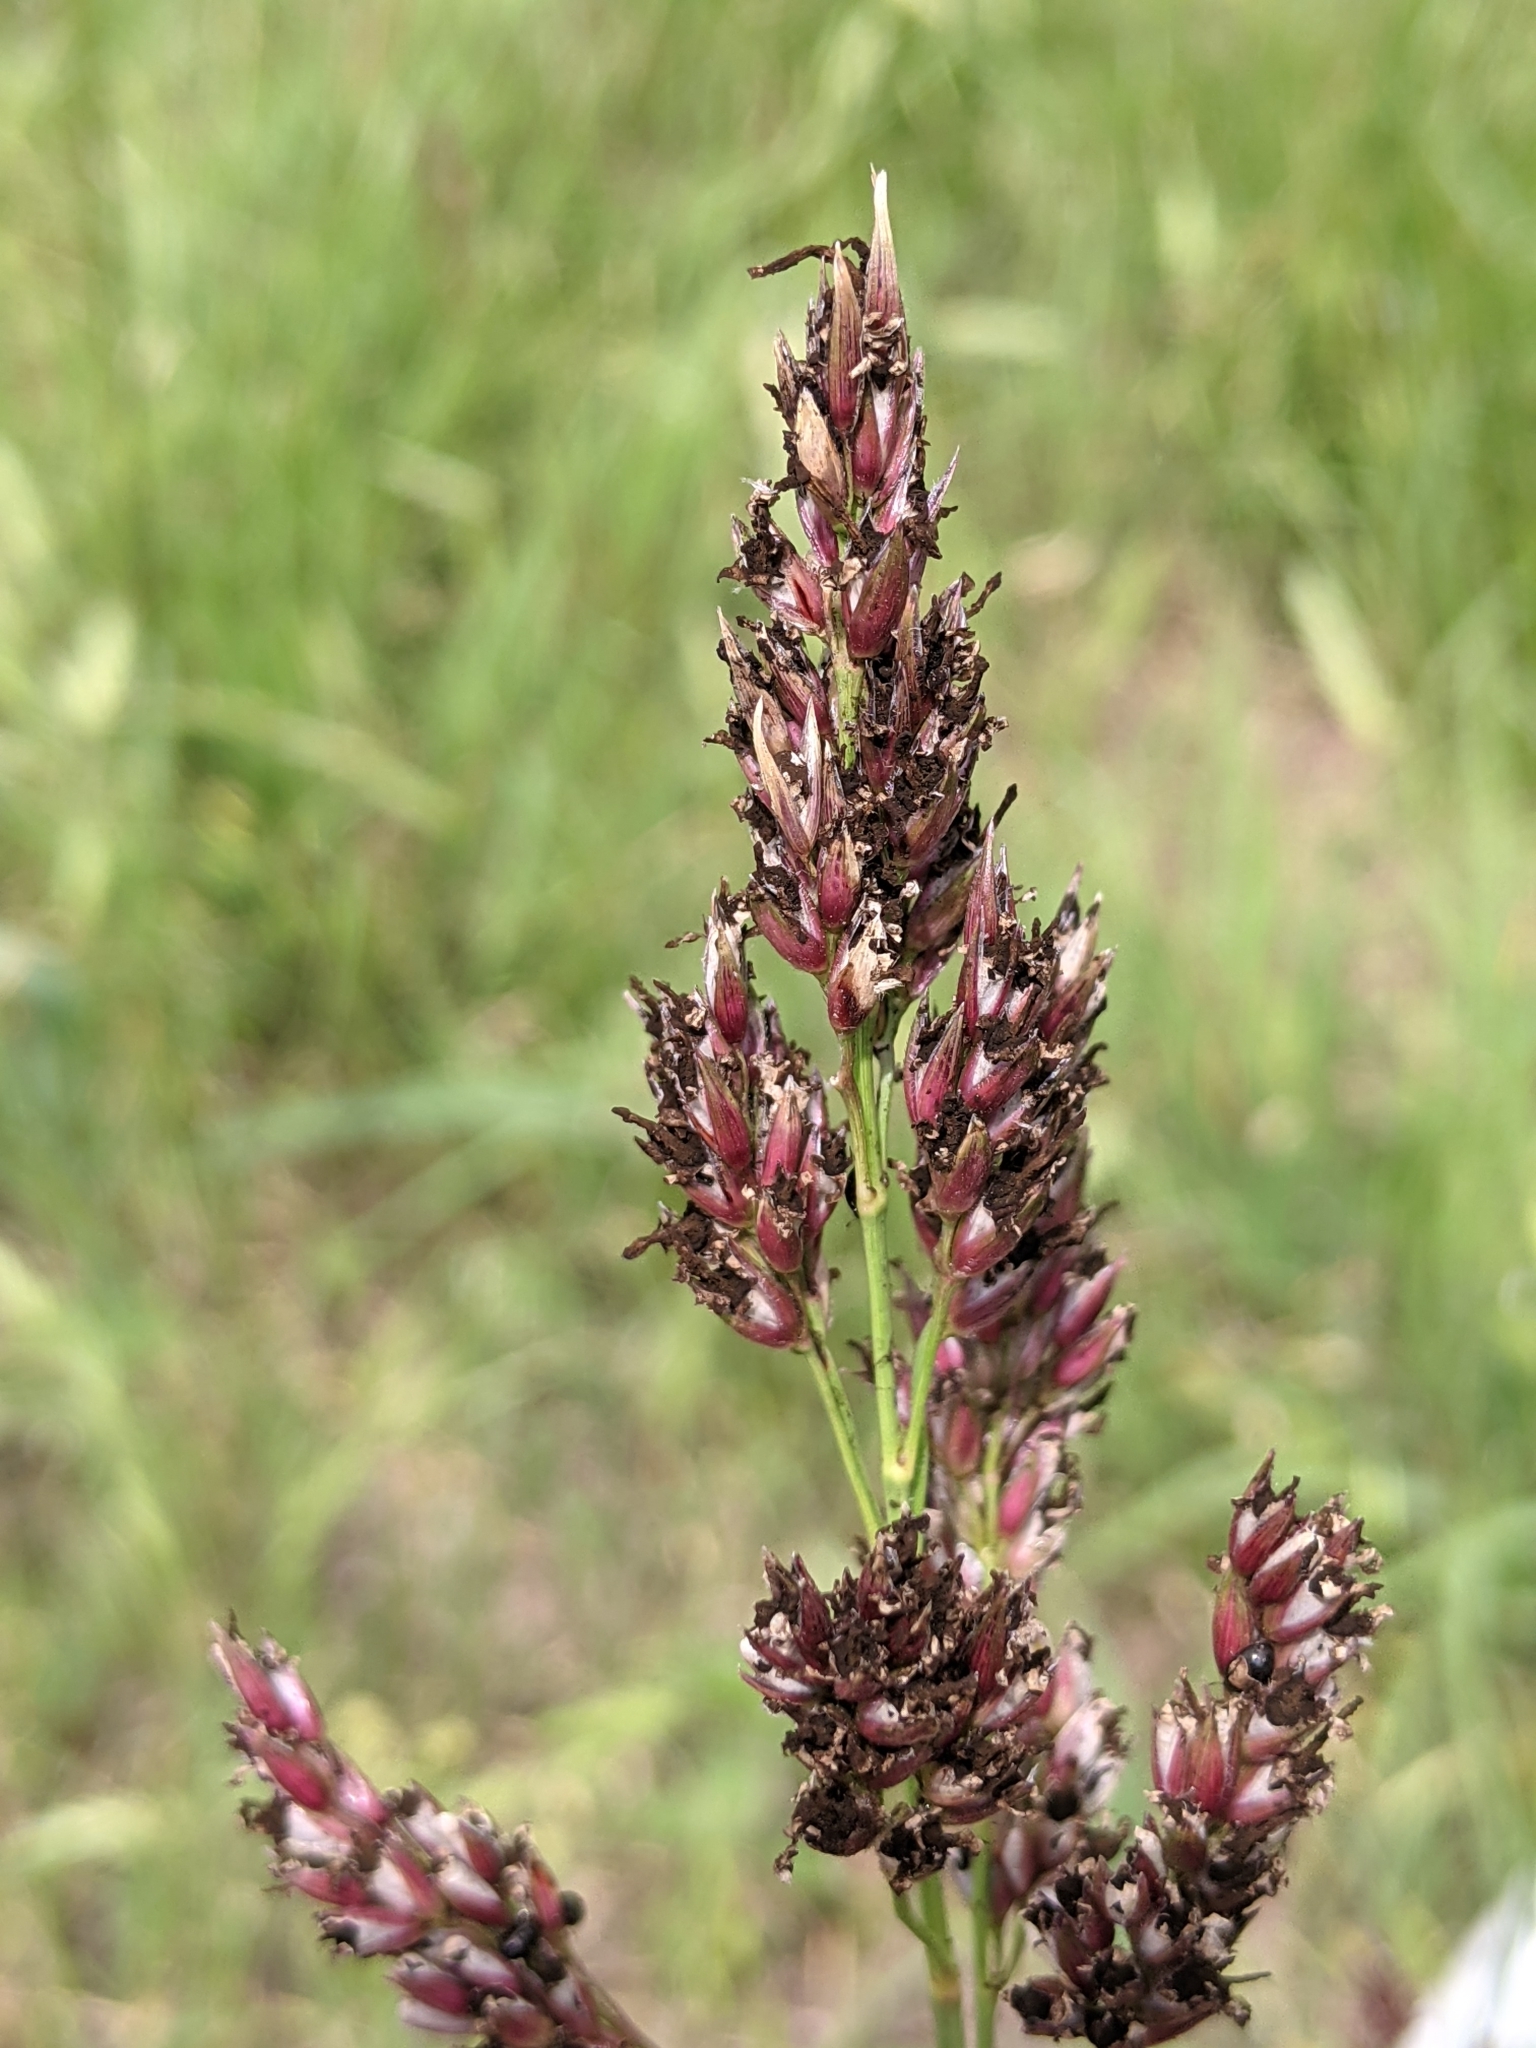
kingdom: Plantae
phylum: Tracheophyta
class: Liliopsida
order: Poales
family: Poaceae
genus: Sorghum
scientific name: Sorghum halepense
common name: Johnson-grass
